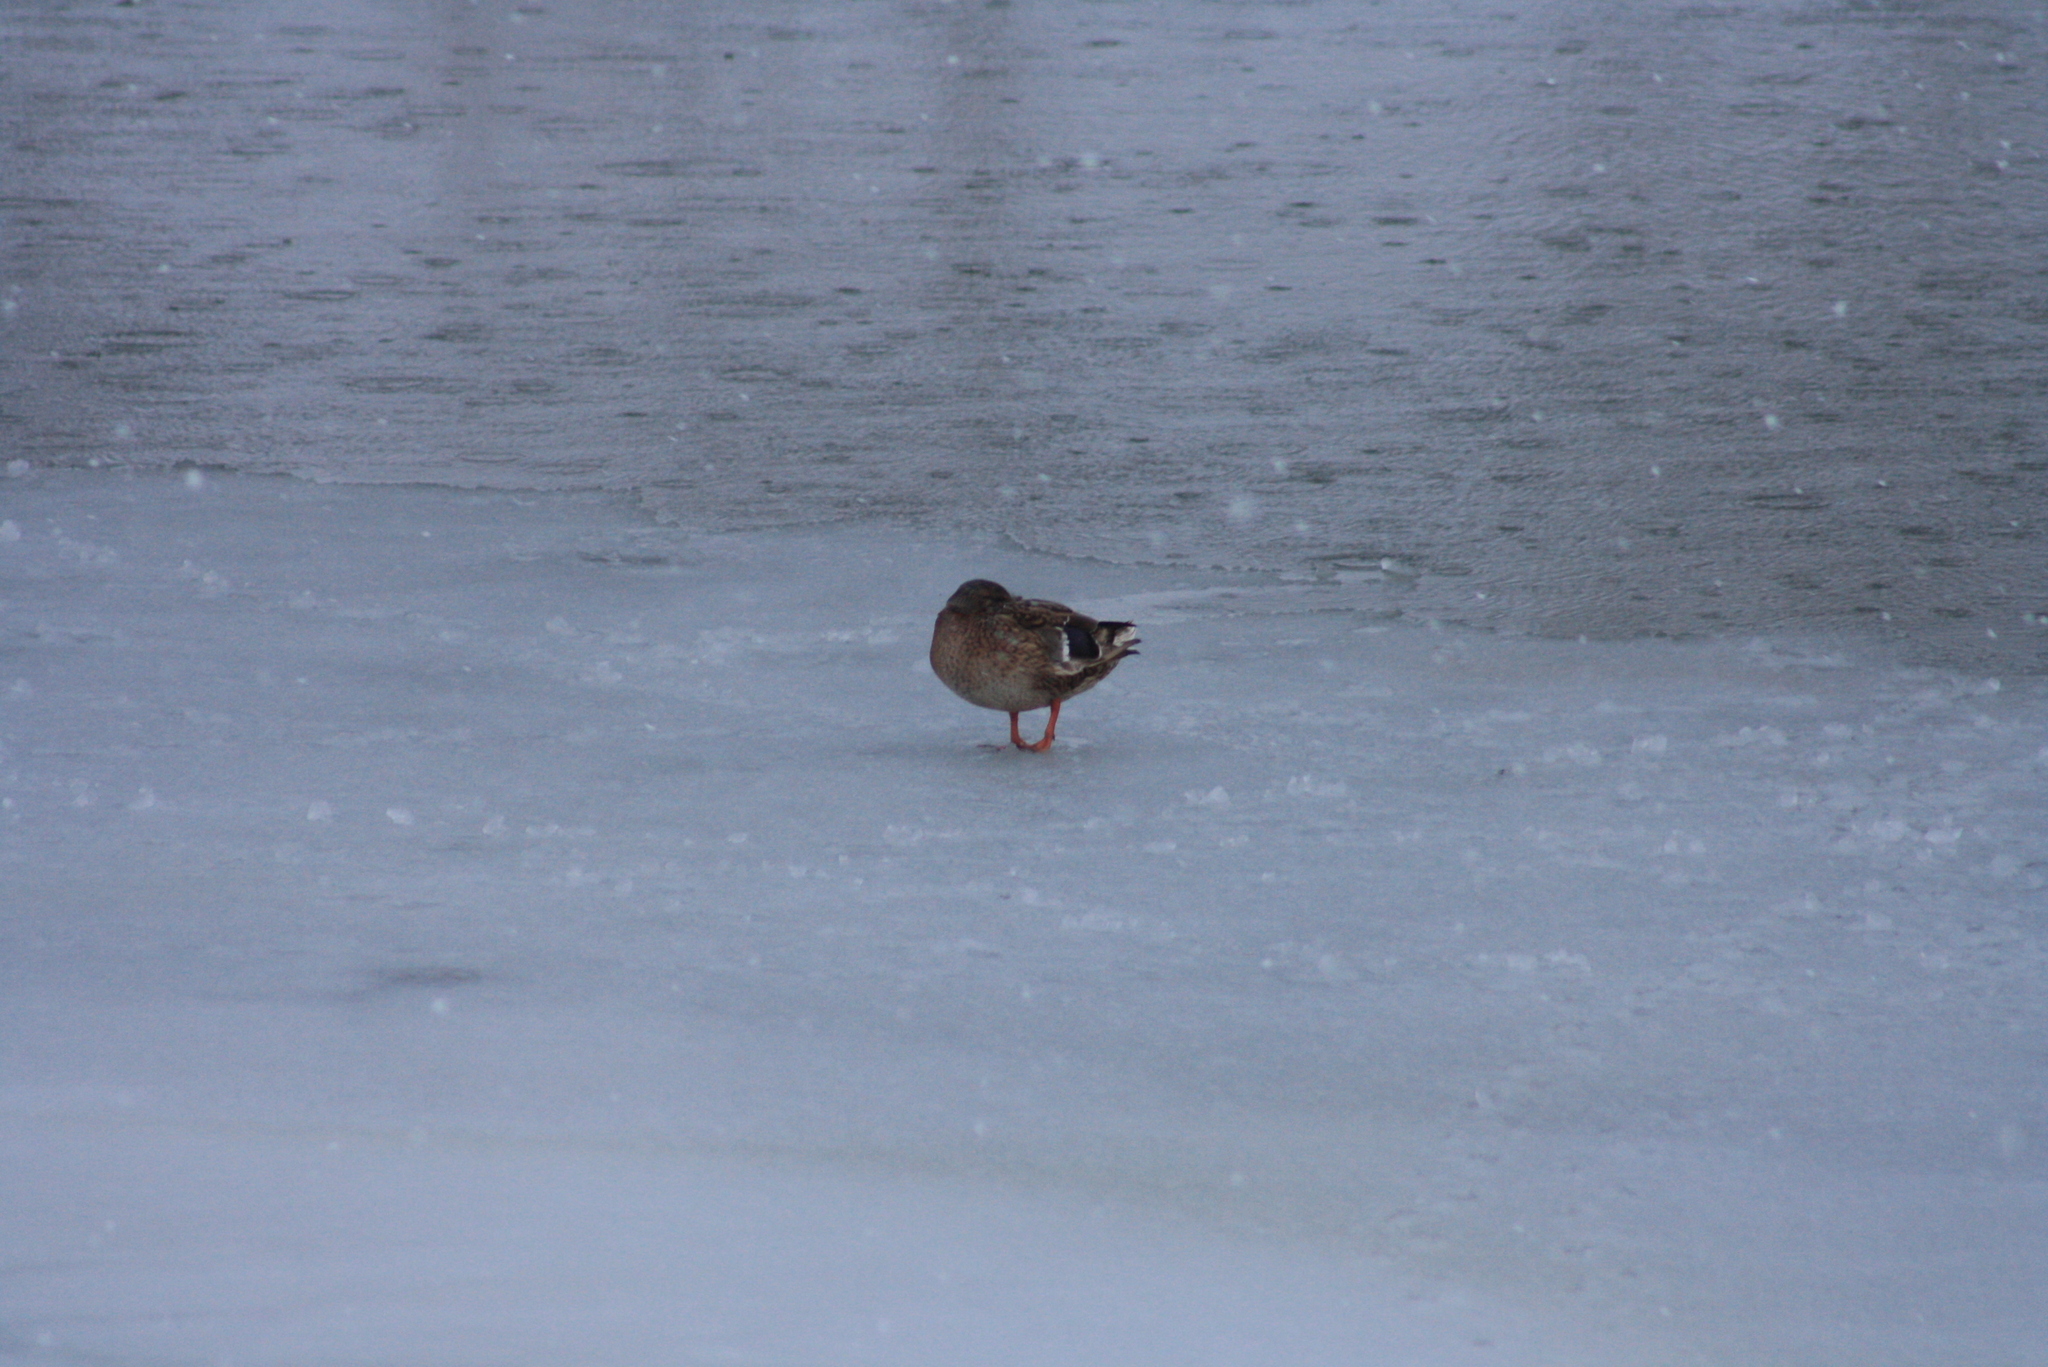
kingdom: Animalia
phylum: Chordata
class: Aves
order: Anseriformes
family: Anatidae
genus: Anas
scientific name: Anas platyrhynchos
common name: Mallard
